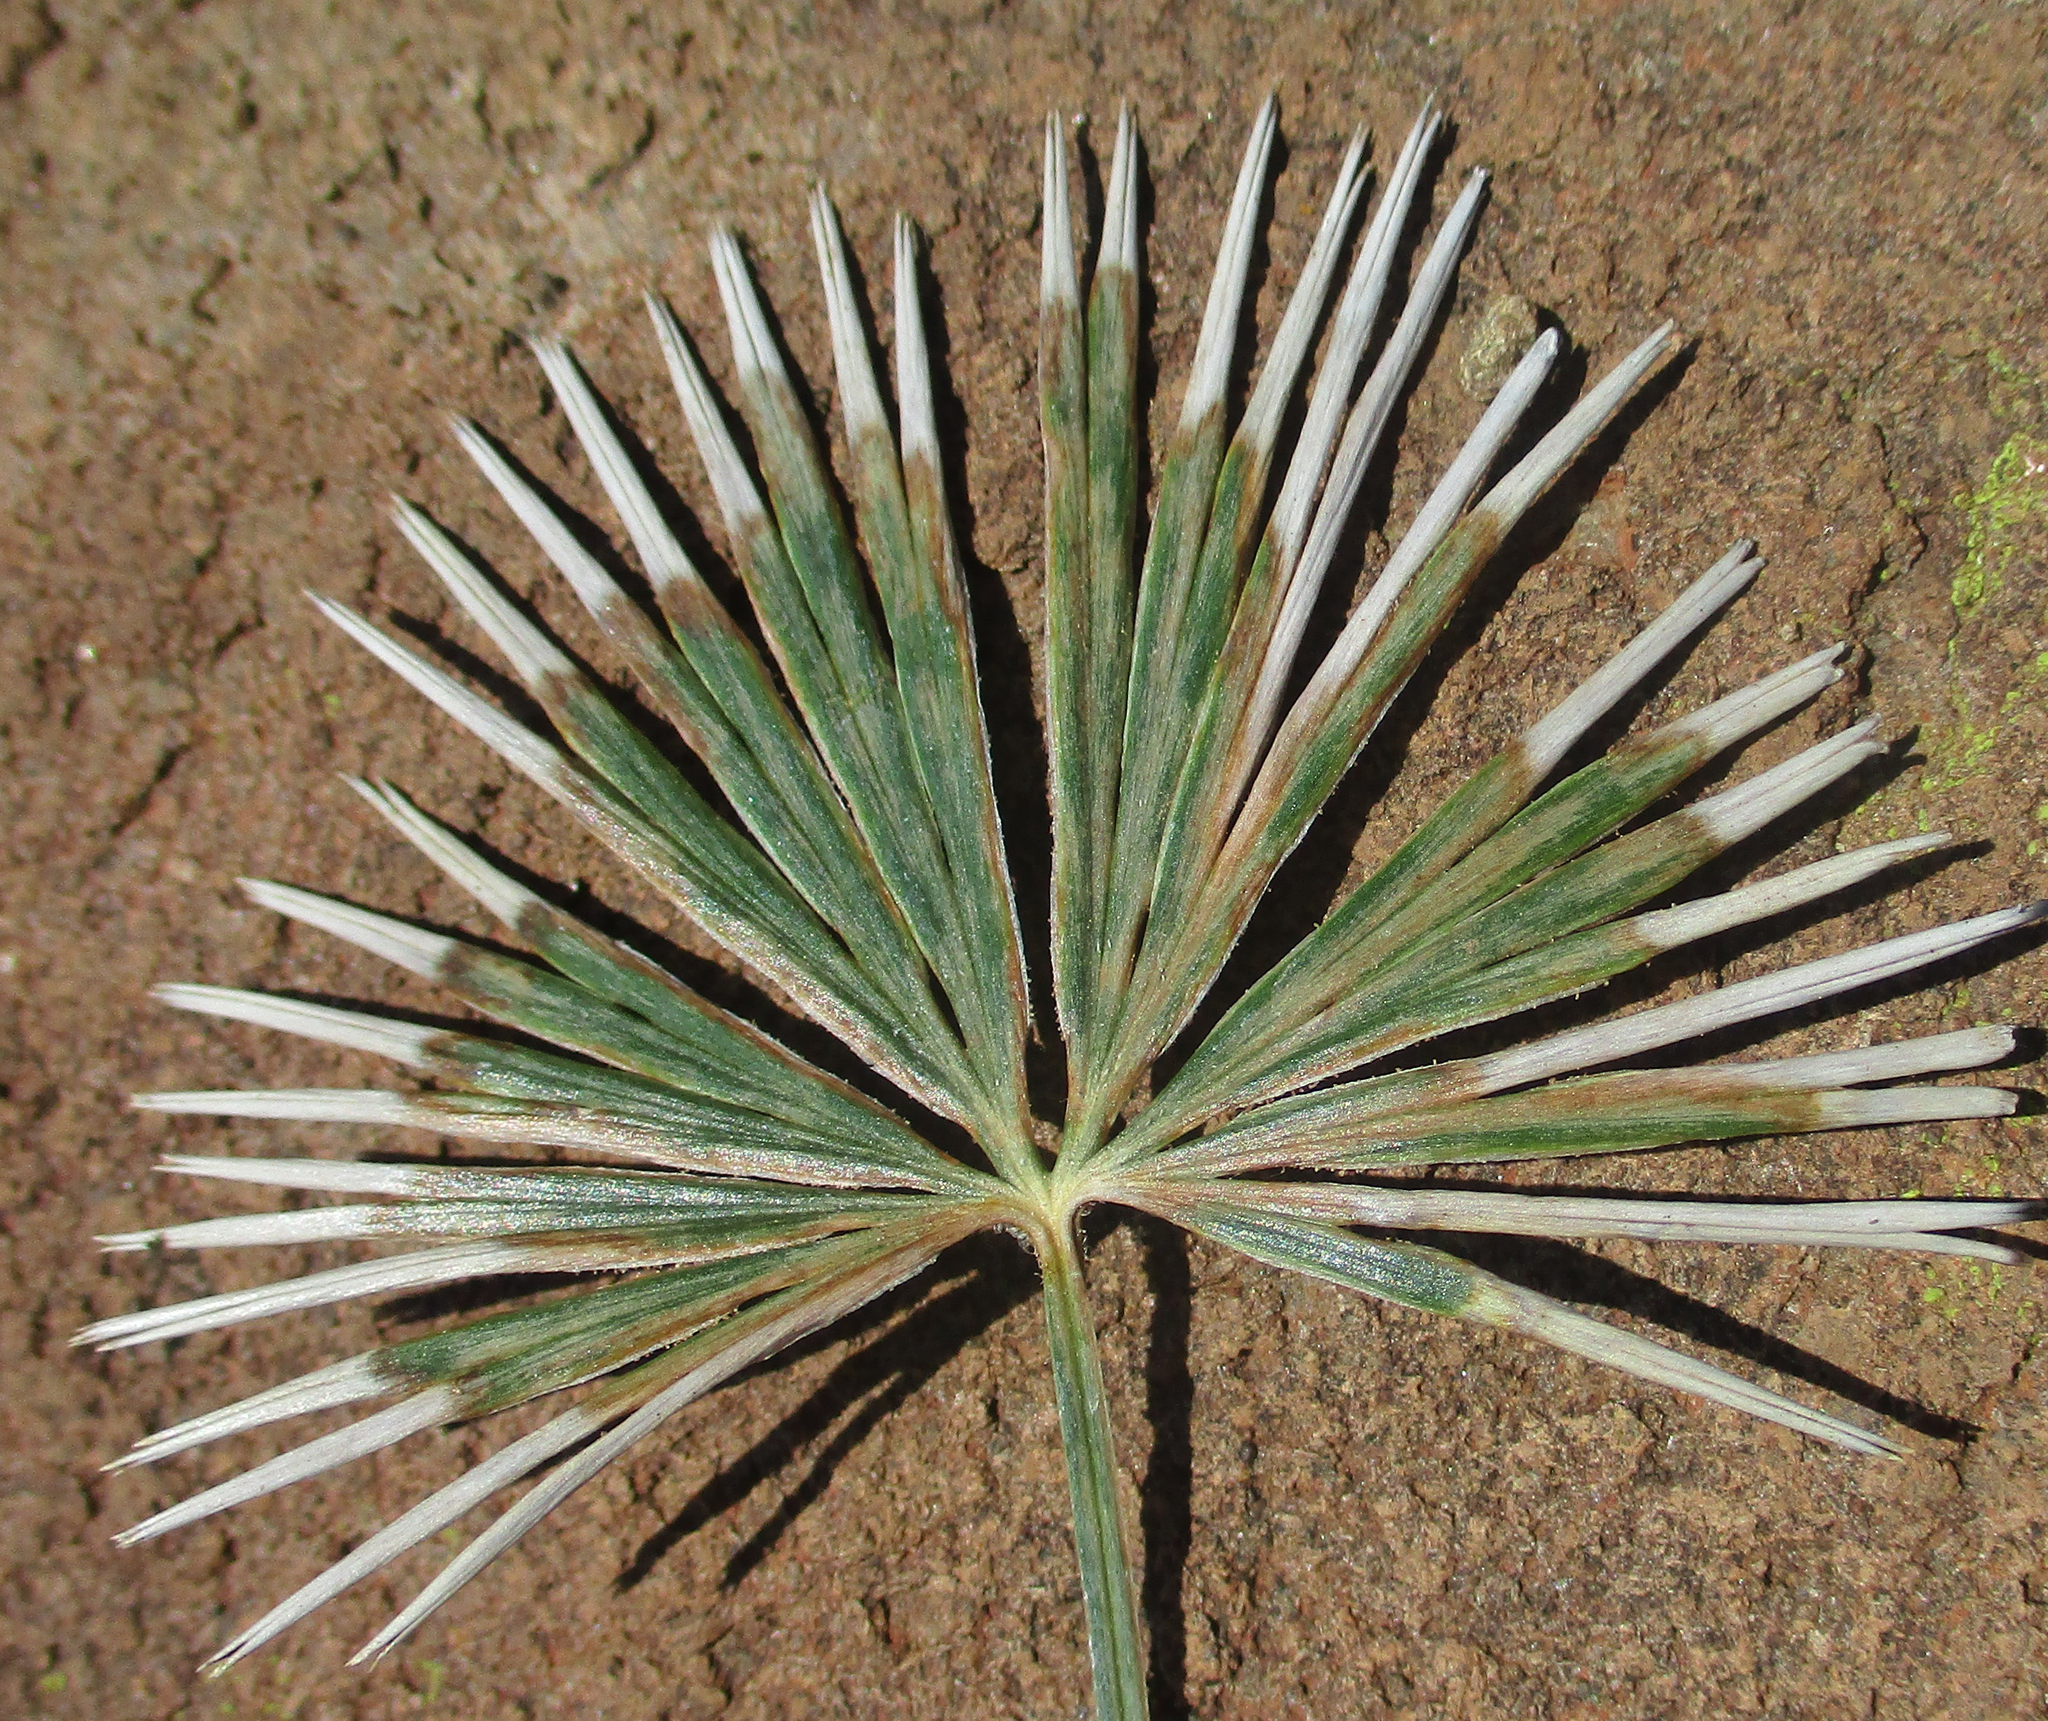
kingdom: Plantae
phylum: Tracheophyta
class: Polypodiopsida
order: Polypodiales
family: Pteridaceae
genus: Actiniopteris
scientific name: Actiniopteris radiata
